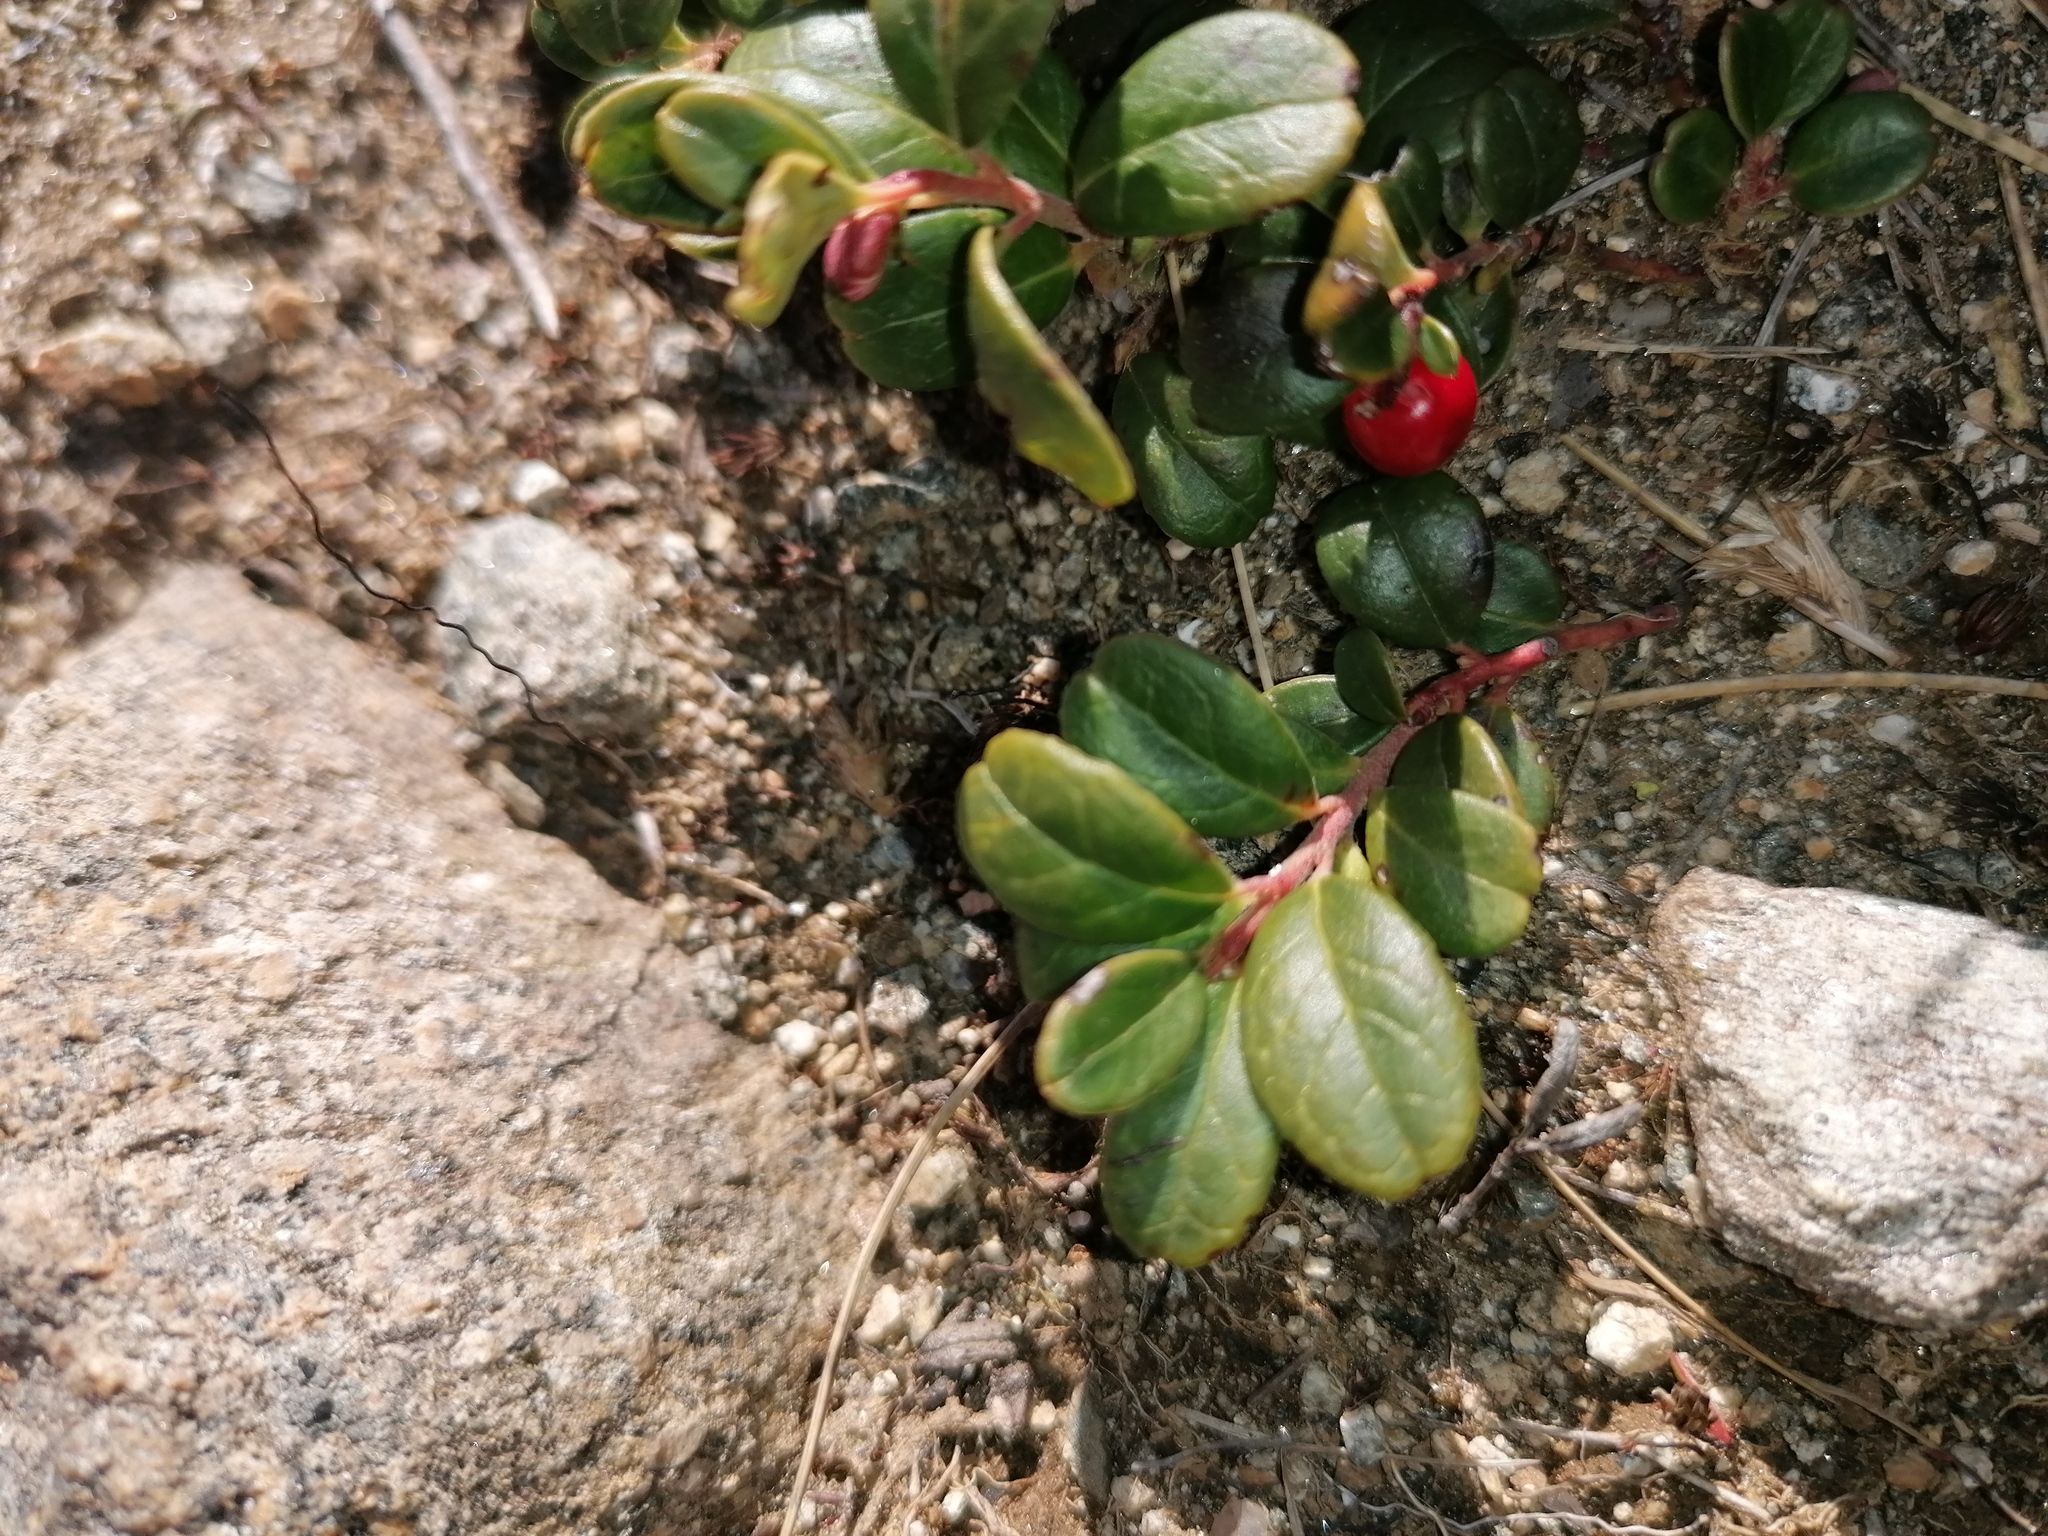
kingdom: Plantae
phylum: Tracheophyta
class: Magnoliopsida
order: Ericales
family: Ericaceae
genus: Vaccinium
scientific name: Vaccinium vitis-idaea
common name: Cowberry
